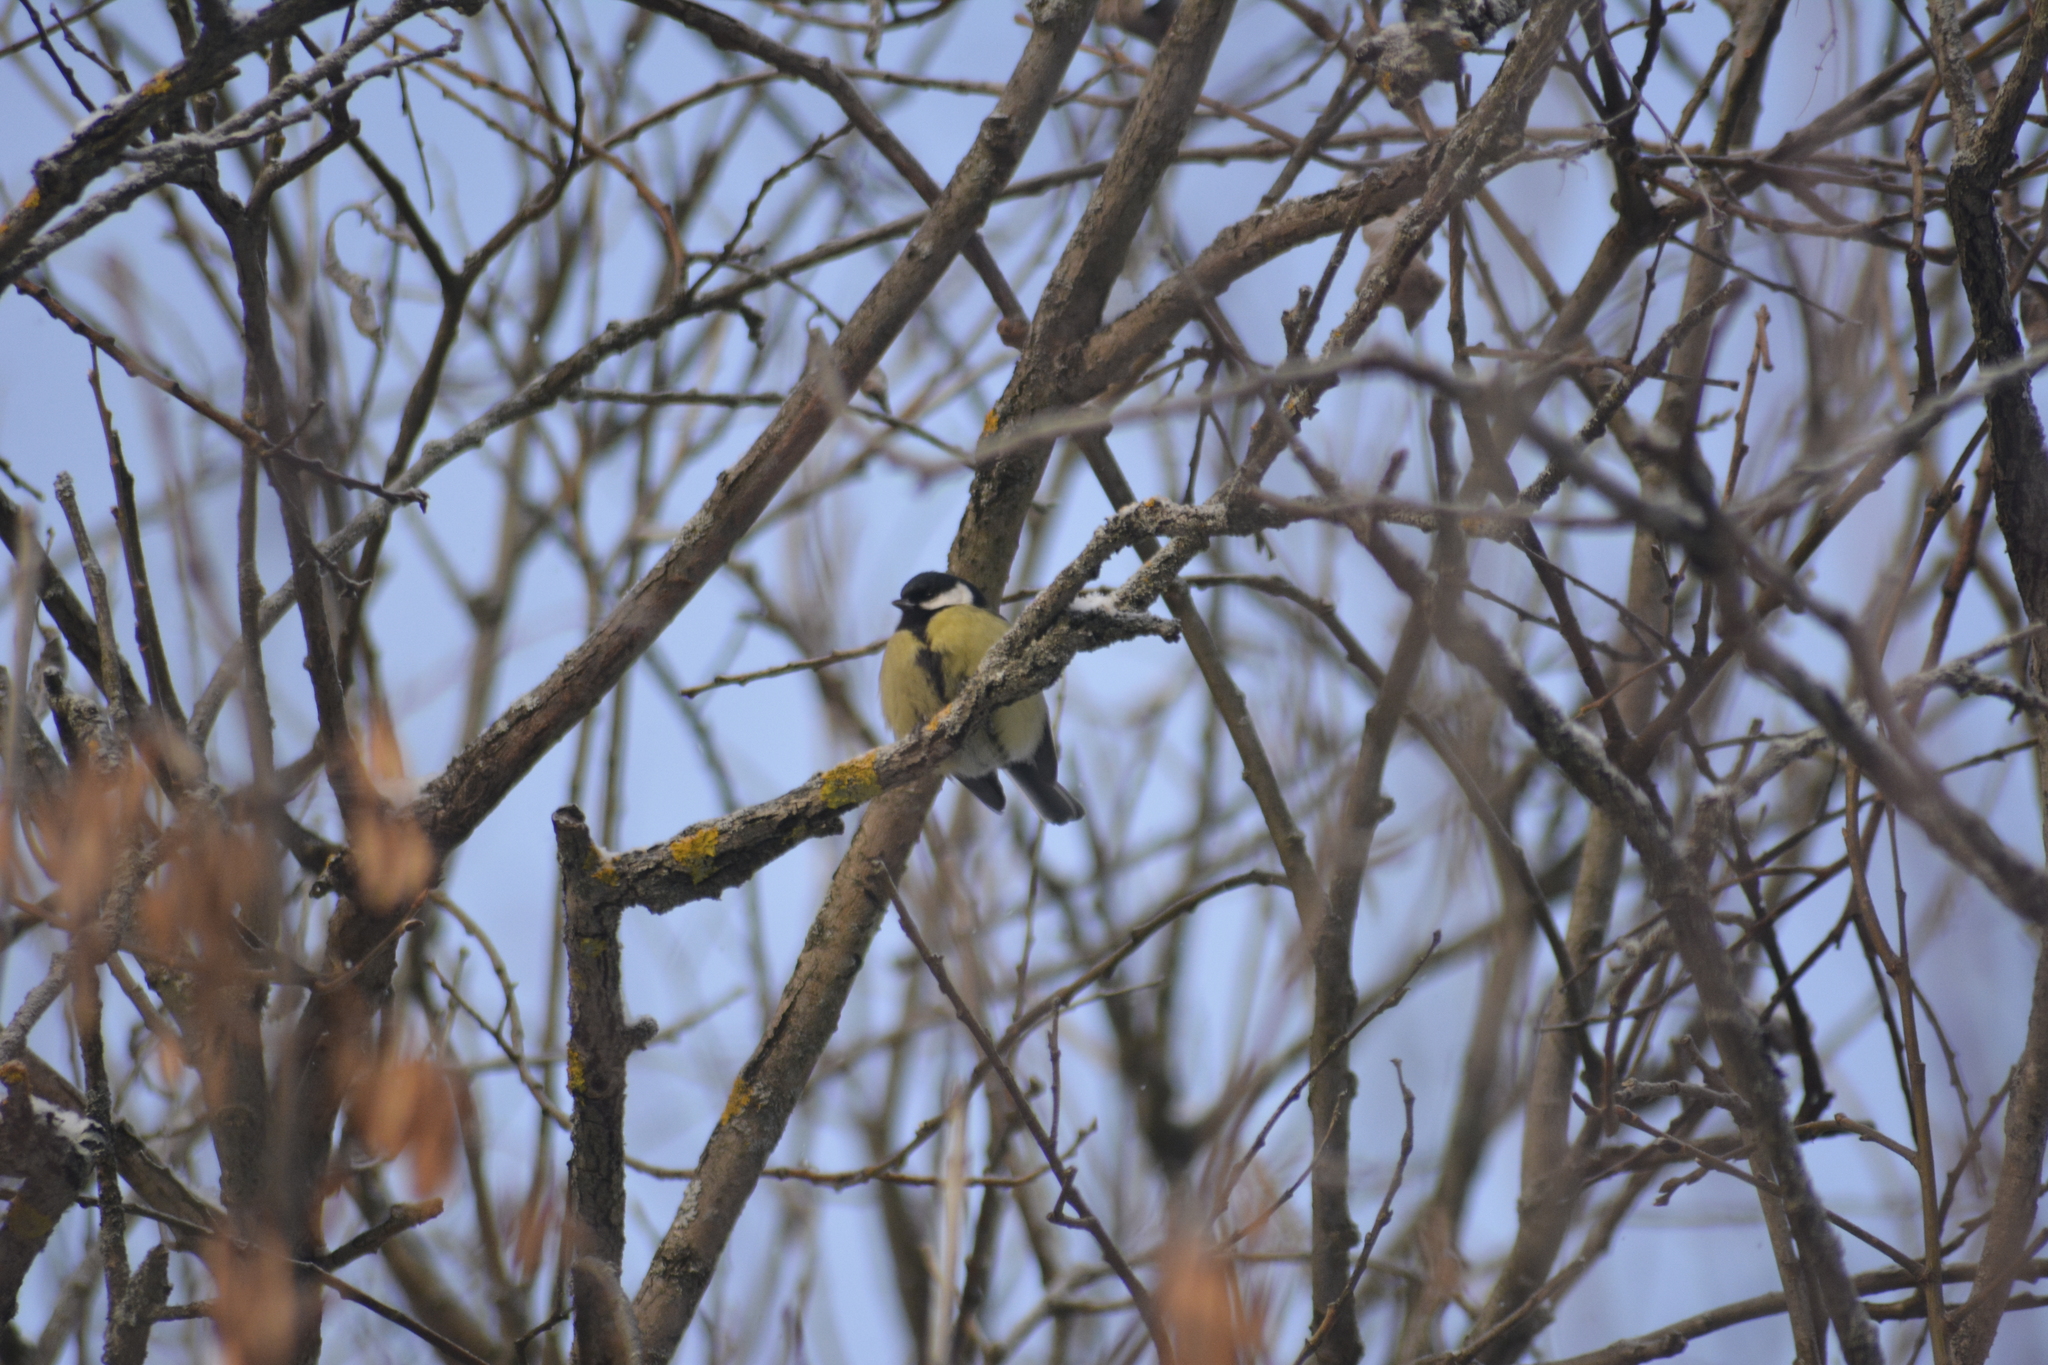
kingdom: Animalia
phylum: Chordata
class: Aves
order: Passeriformes
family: Paridae
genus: Parus
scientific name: Parus major
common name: Great tit
